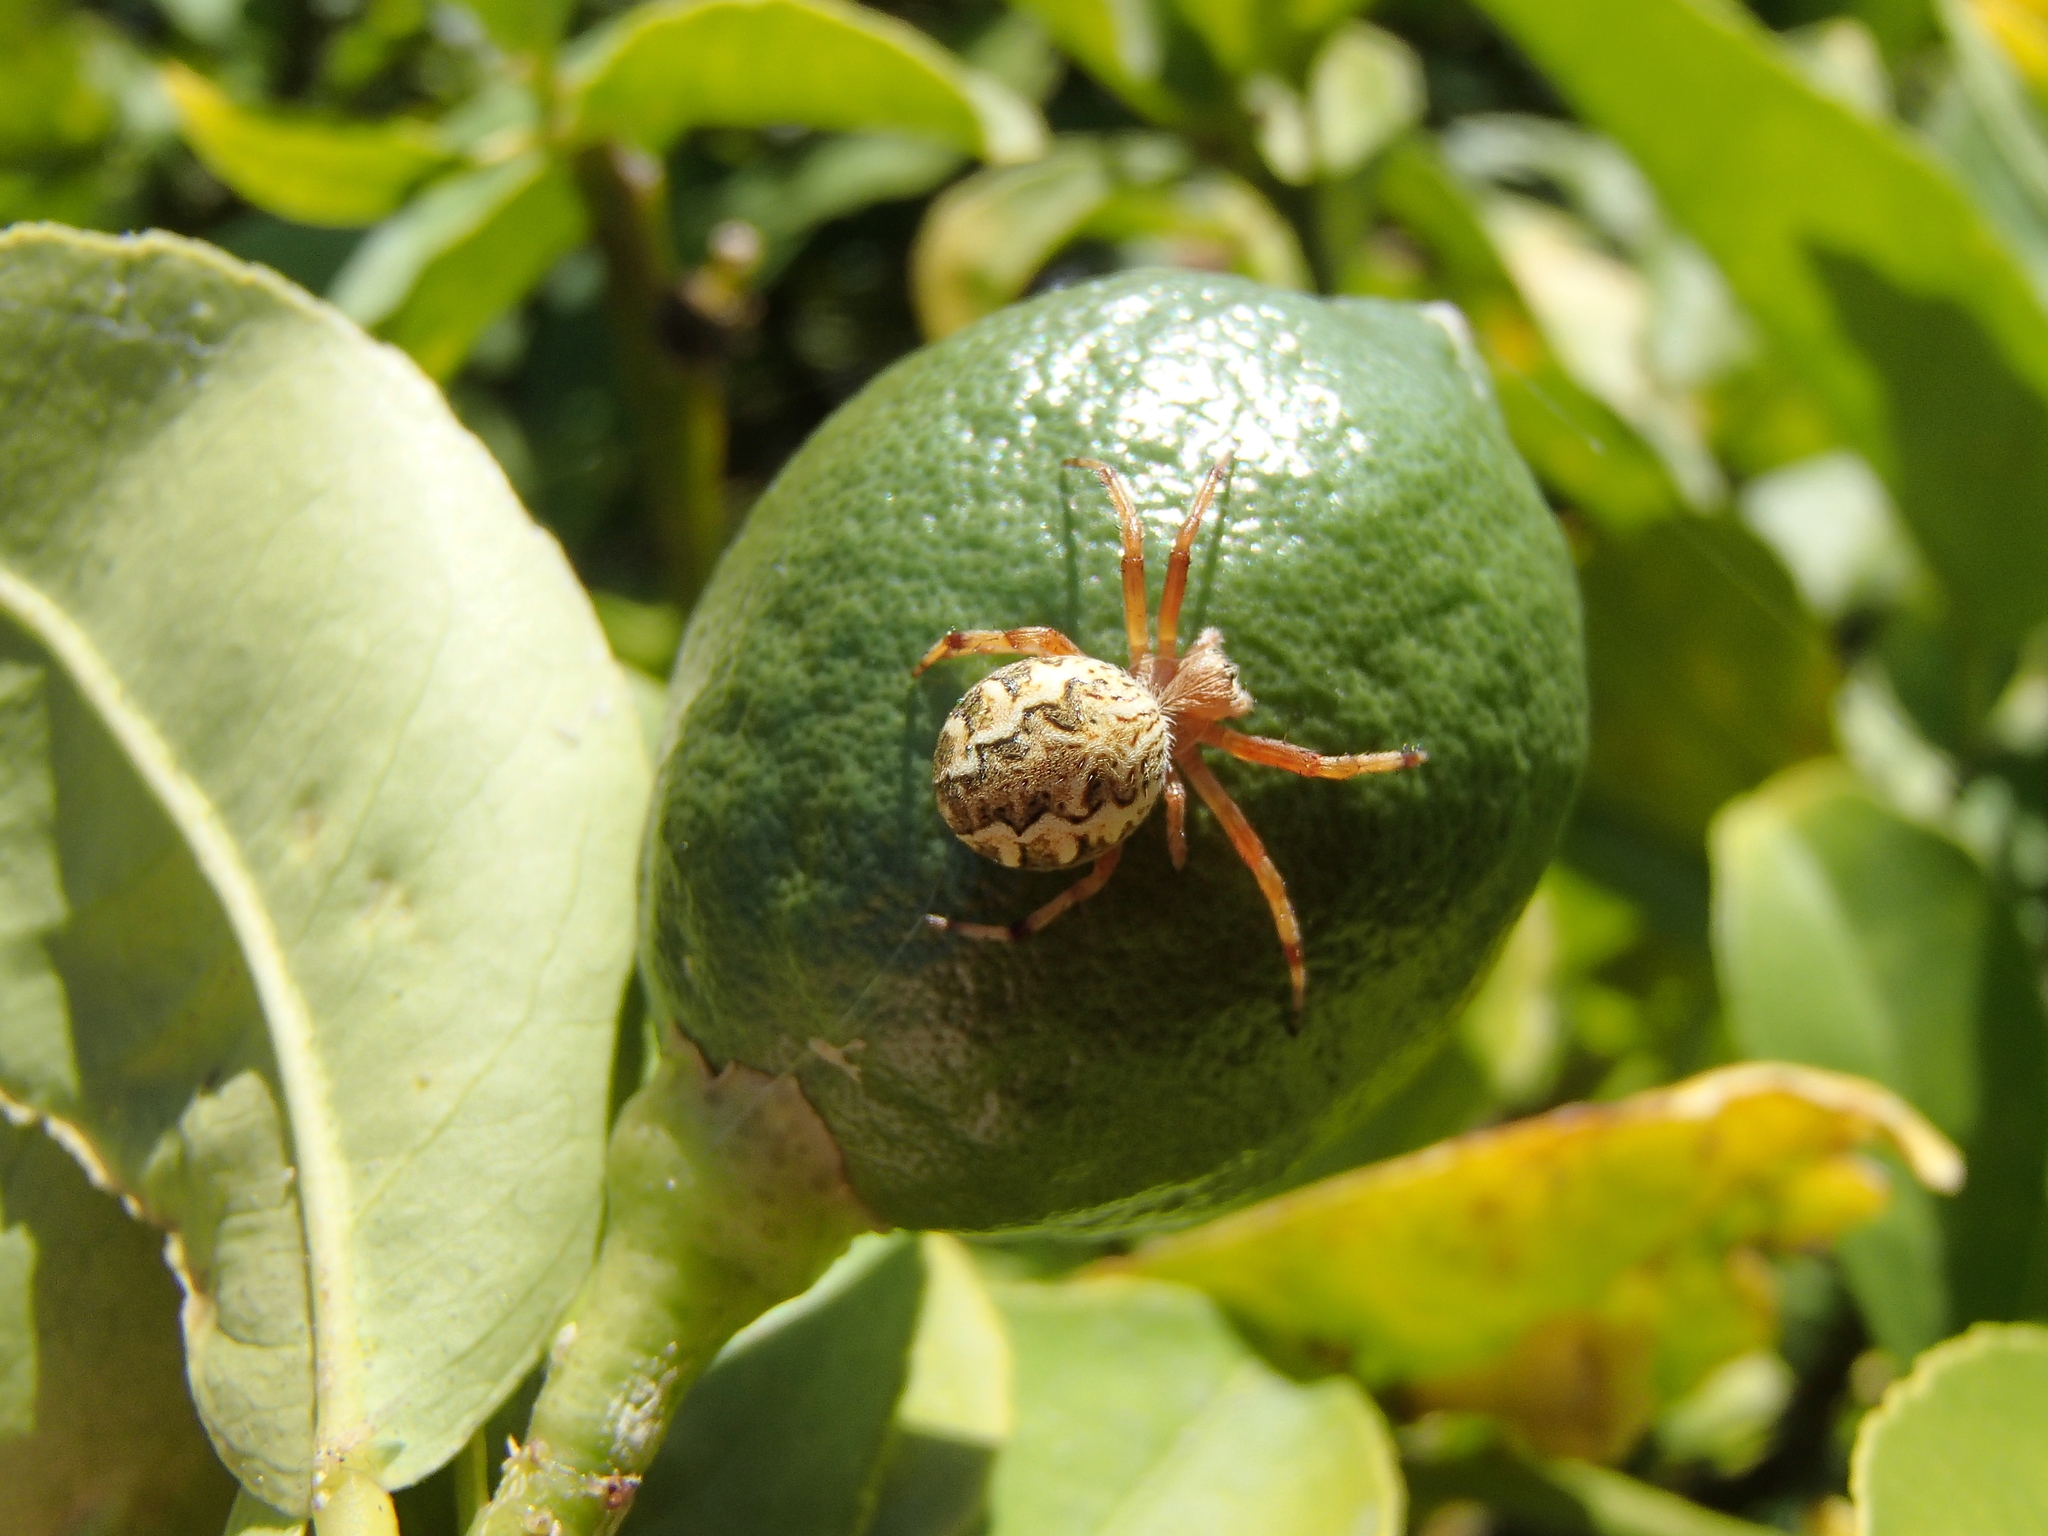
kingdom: Animalia
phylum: Arthropoda
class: Arachnida
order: Araneae
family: Araneidae
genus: Salsa
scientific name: Salsa fuliginata
